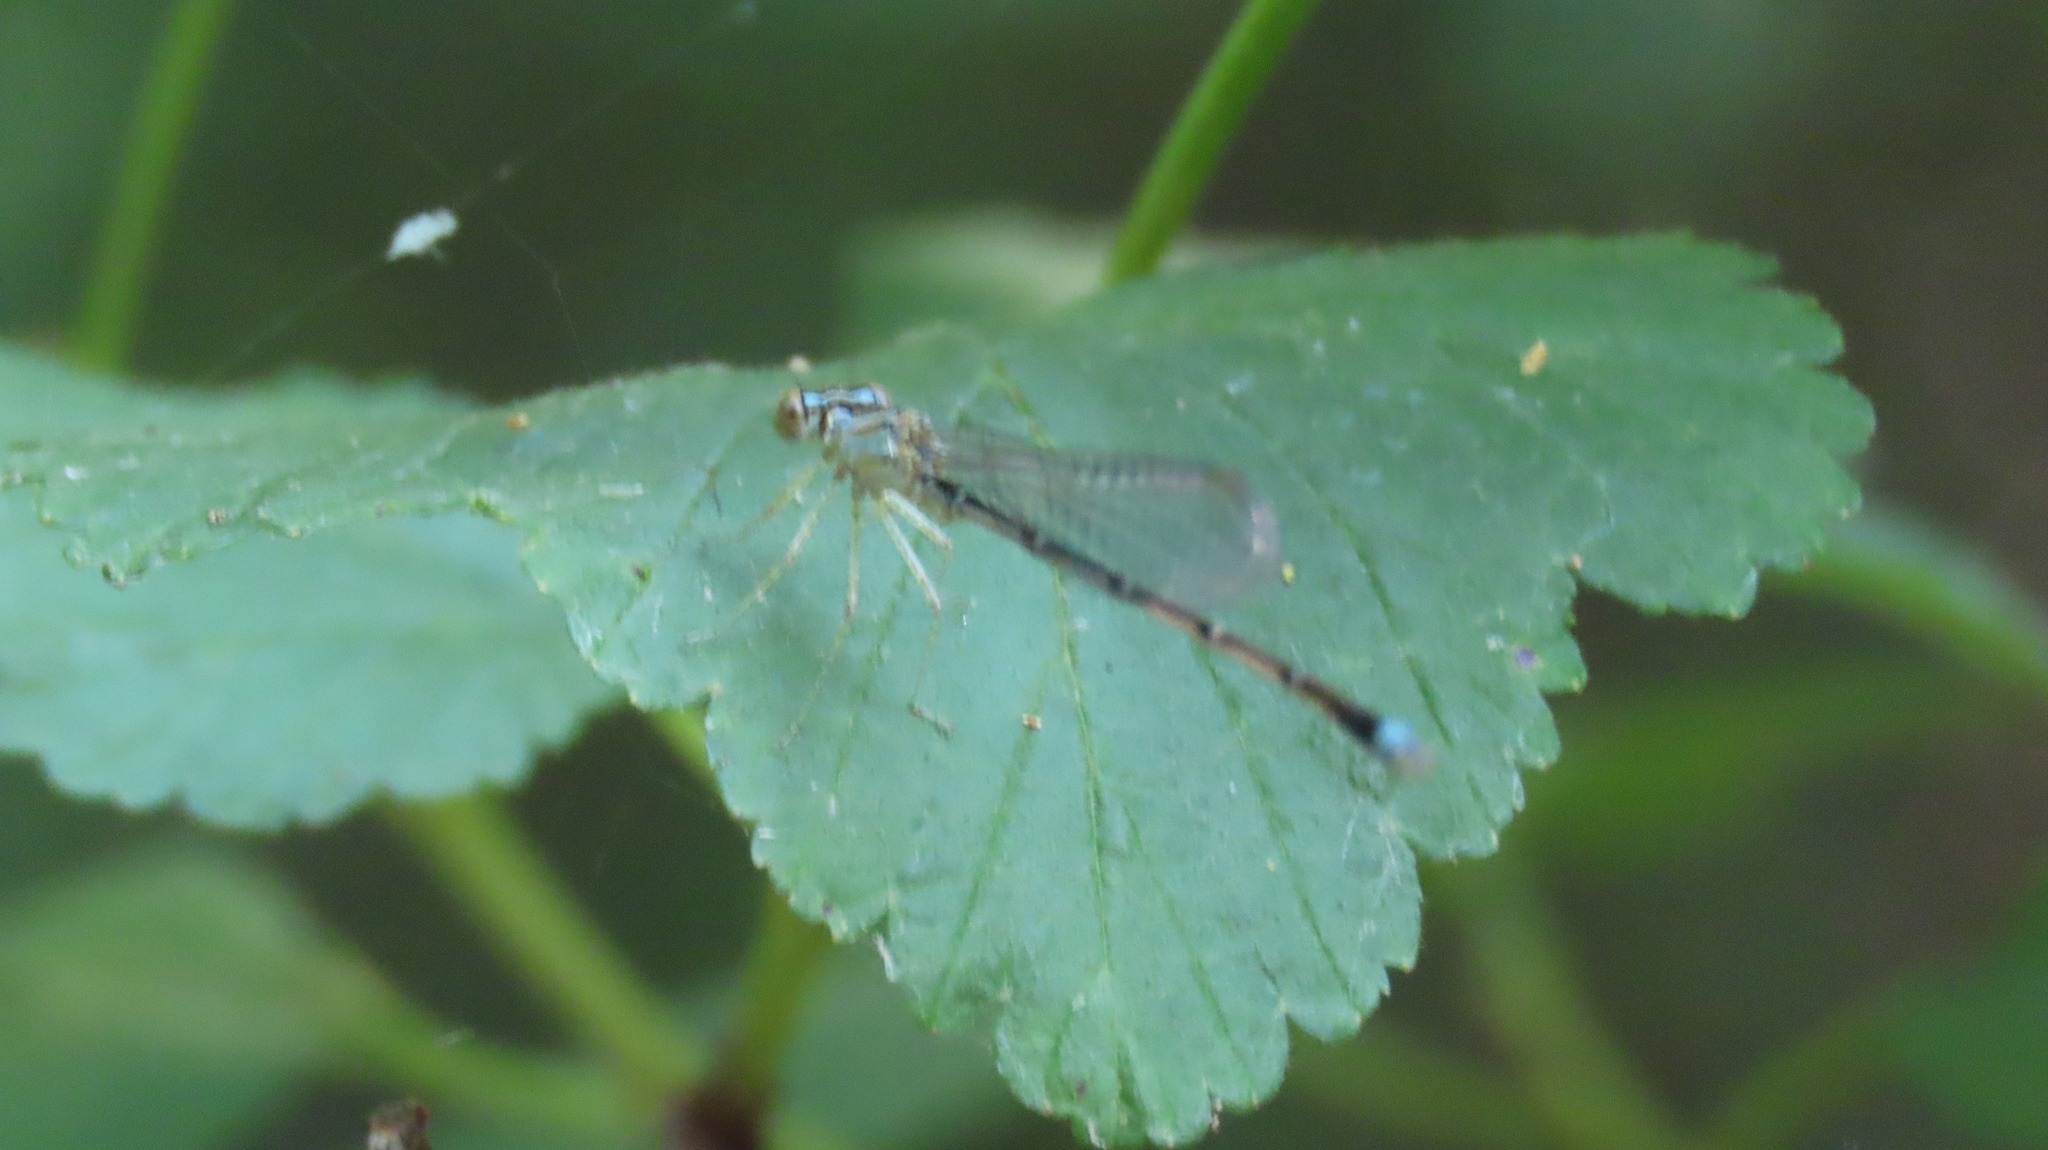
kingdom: Animalia
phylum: Arthropoda
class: Insecta
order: Odonata
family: Coenagrionidae
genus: Enallagma
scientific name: Enallagma vesperum
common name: Vesper bluet
